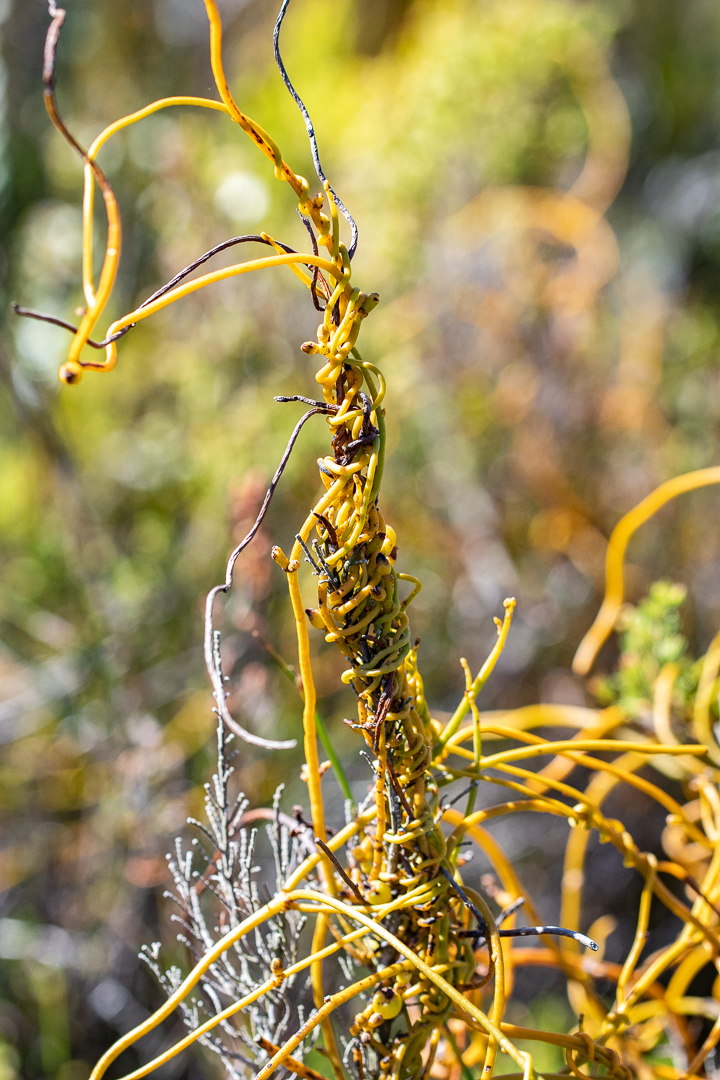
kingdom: Plantae
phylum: Tracheophyta
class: Magnoliopsida
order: Laurales
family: Lauraceae
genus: Cassytha
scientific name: Cassytha ciliolata
